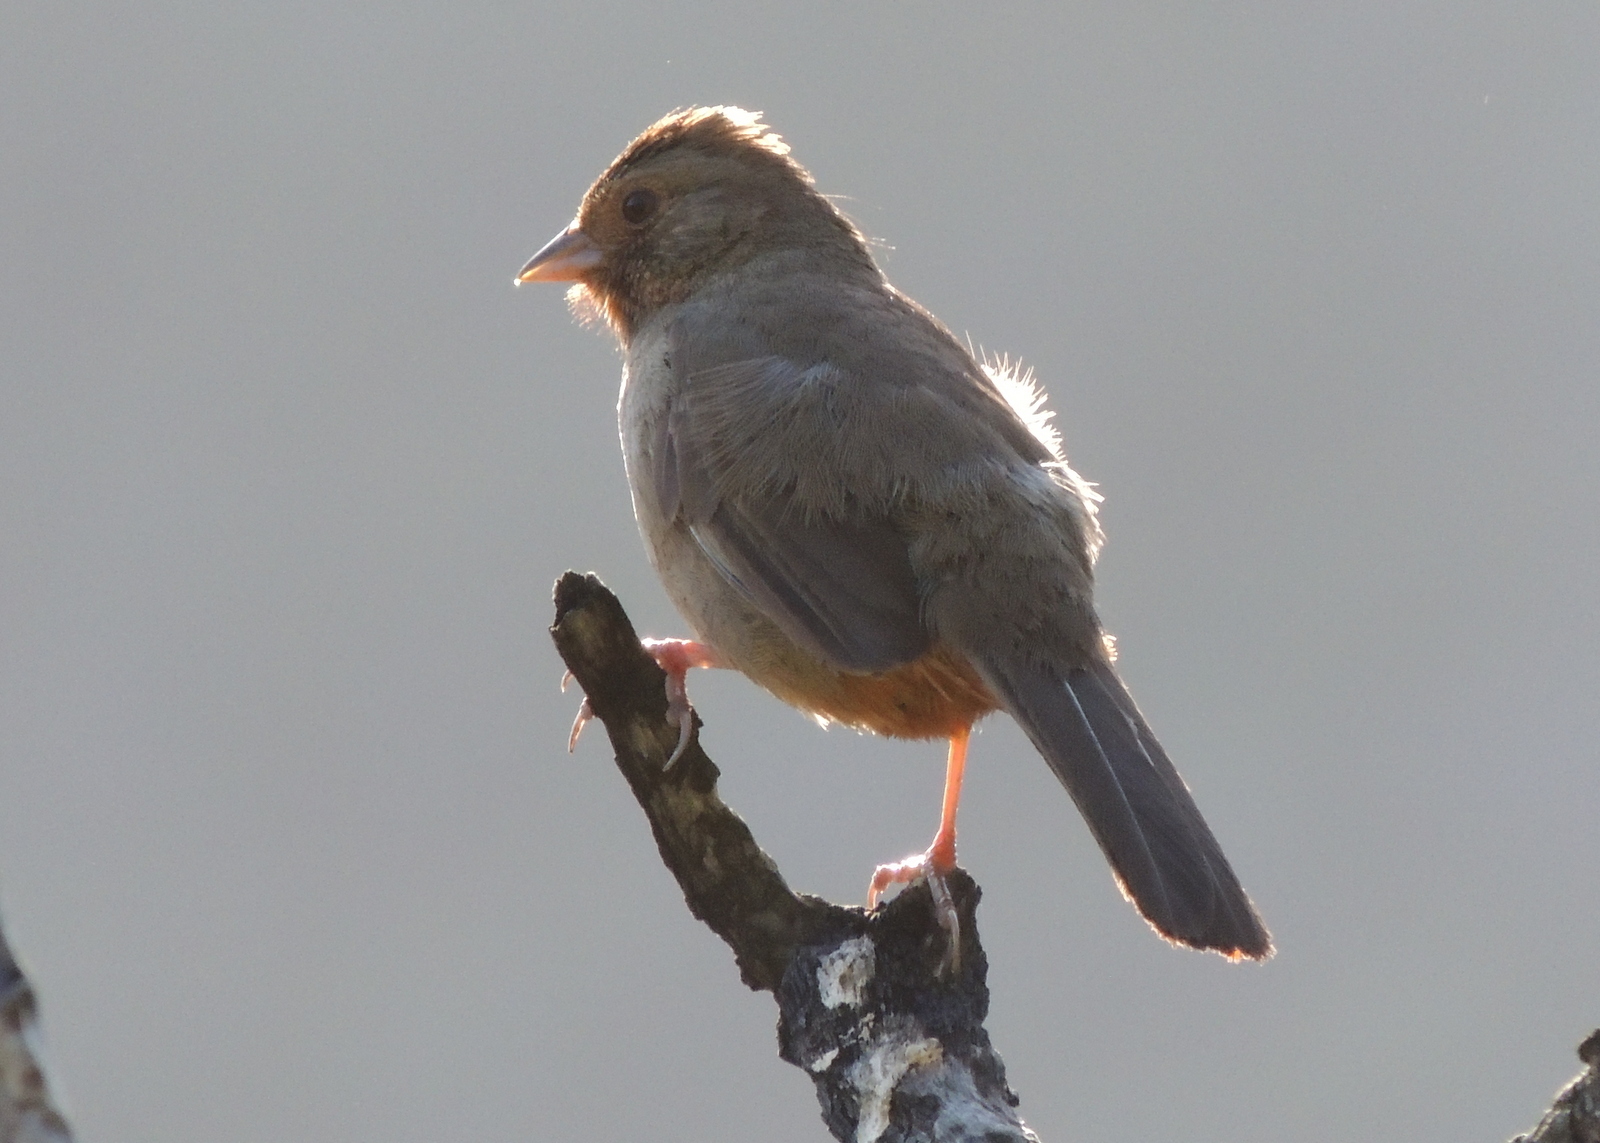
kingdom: Animalia
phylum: Chordata
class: Aves
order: Passeriformes
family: Passerellidae
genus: Melozone
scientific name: Melozone crissalis
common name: California towhee
